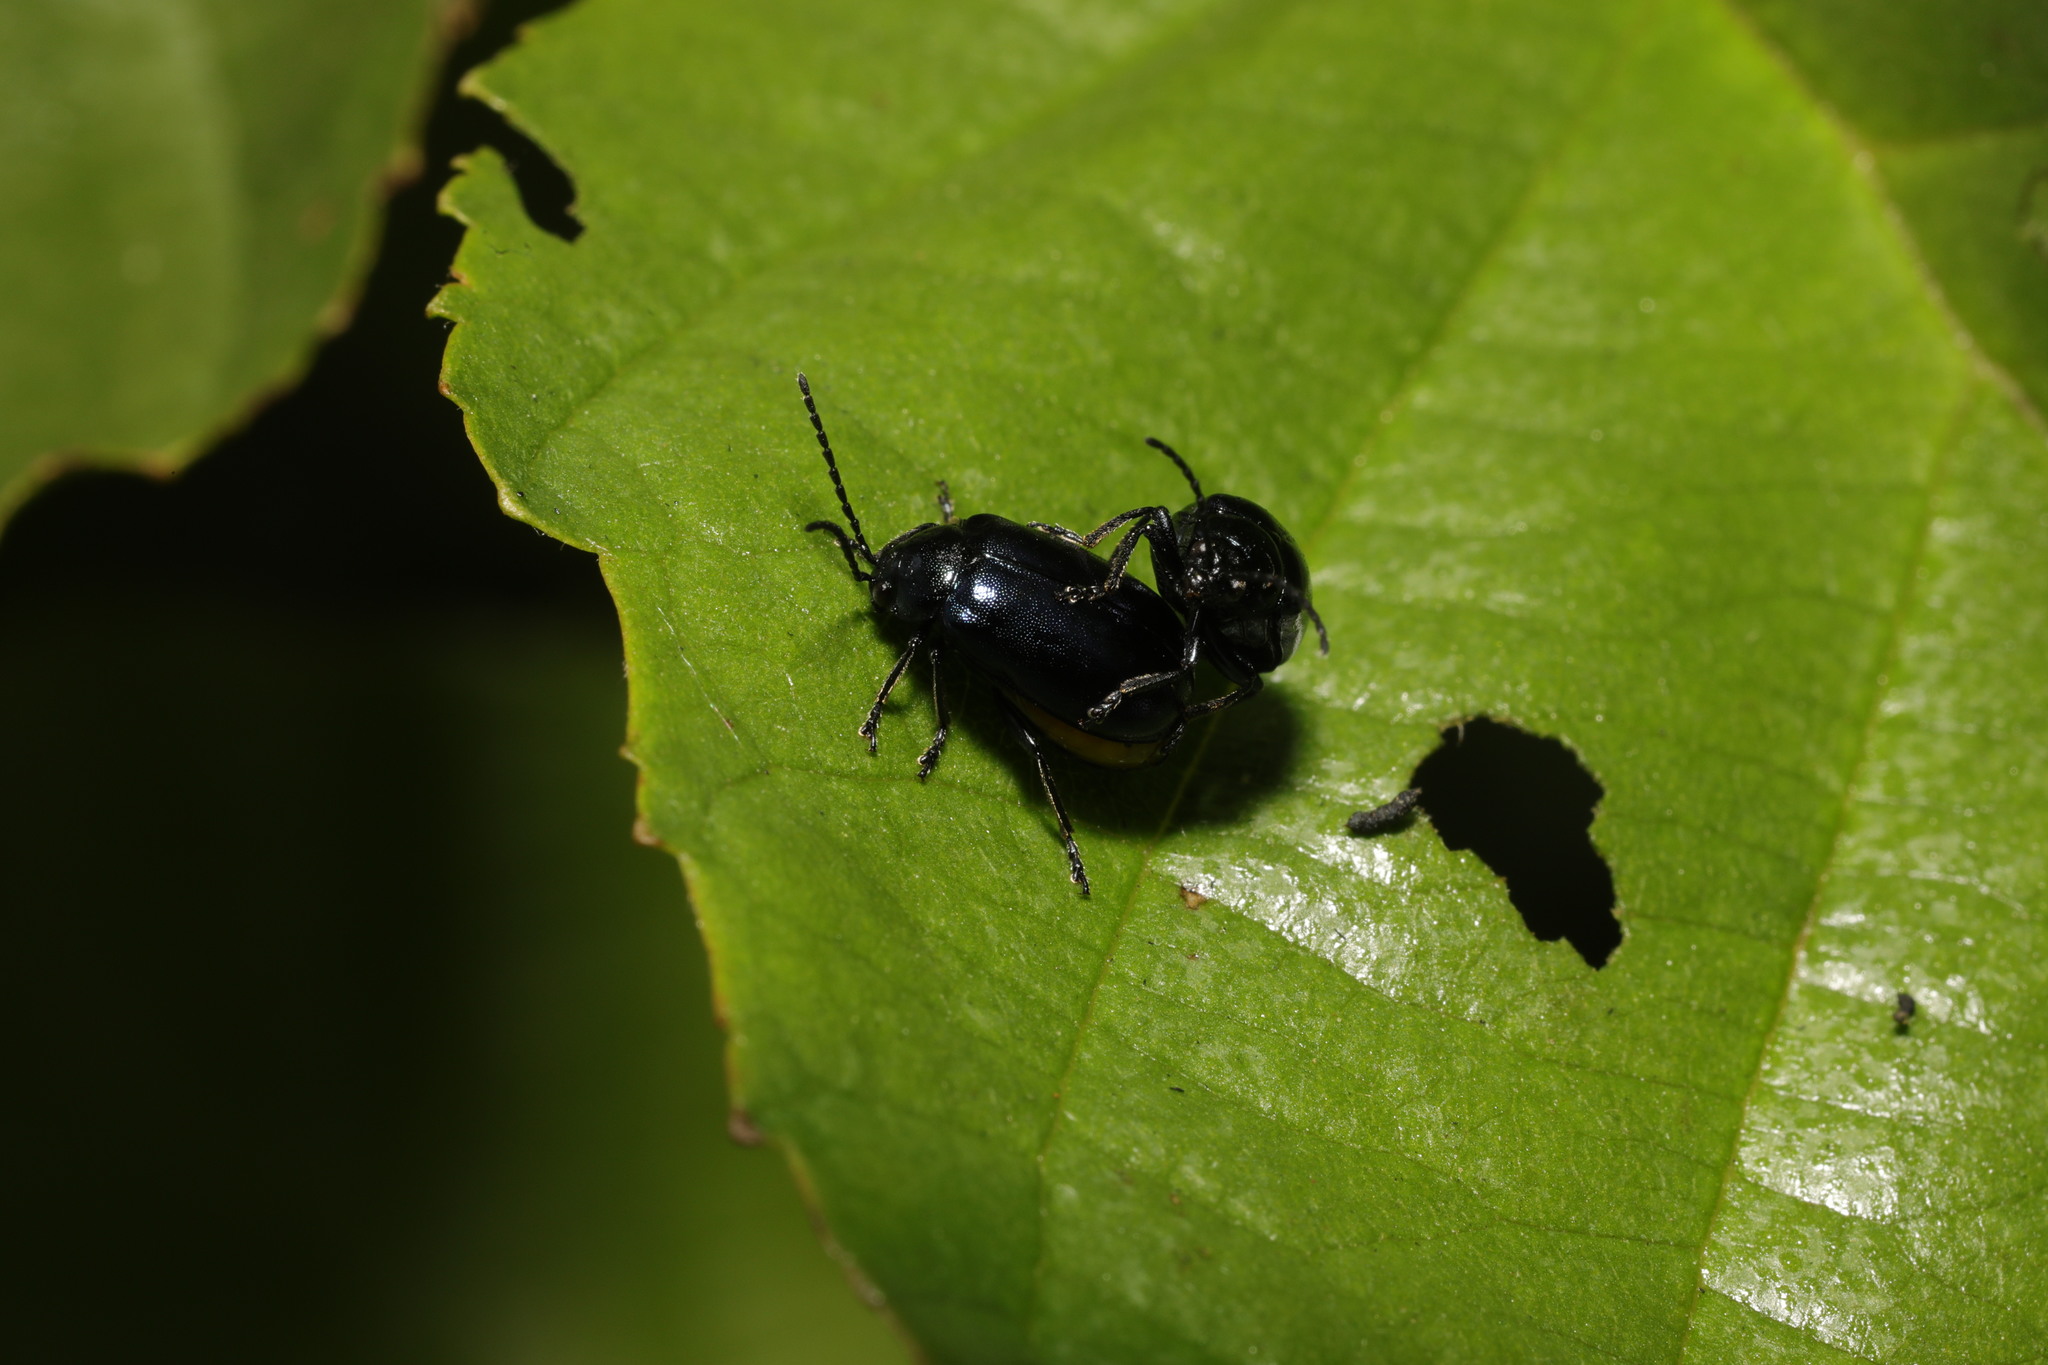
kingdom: Animalia
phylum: Arthropoda
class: Insecta
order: Coleoptera
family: Chrysomelidae
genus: Agelastica
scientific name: Agelastica alni
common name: Alder leaf beetle
